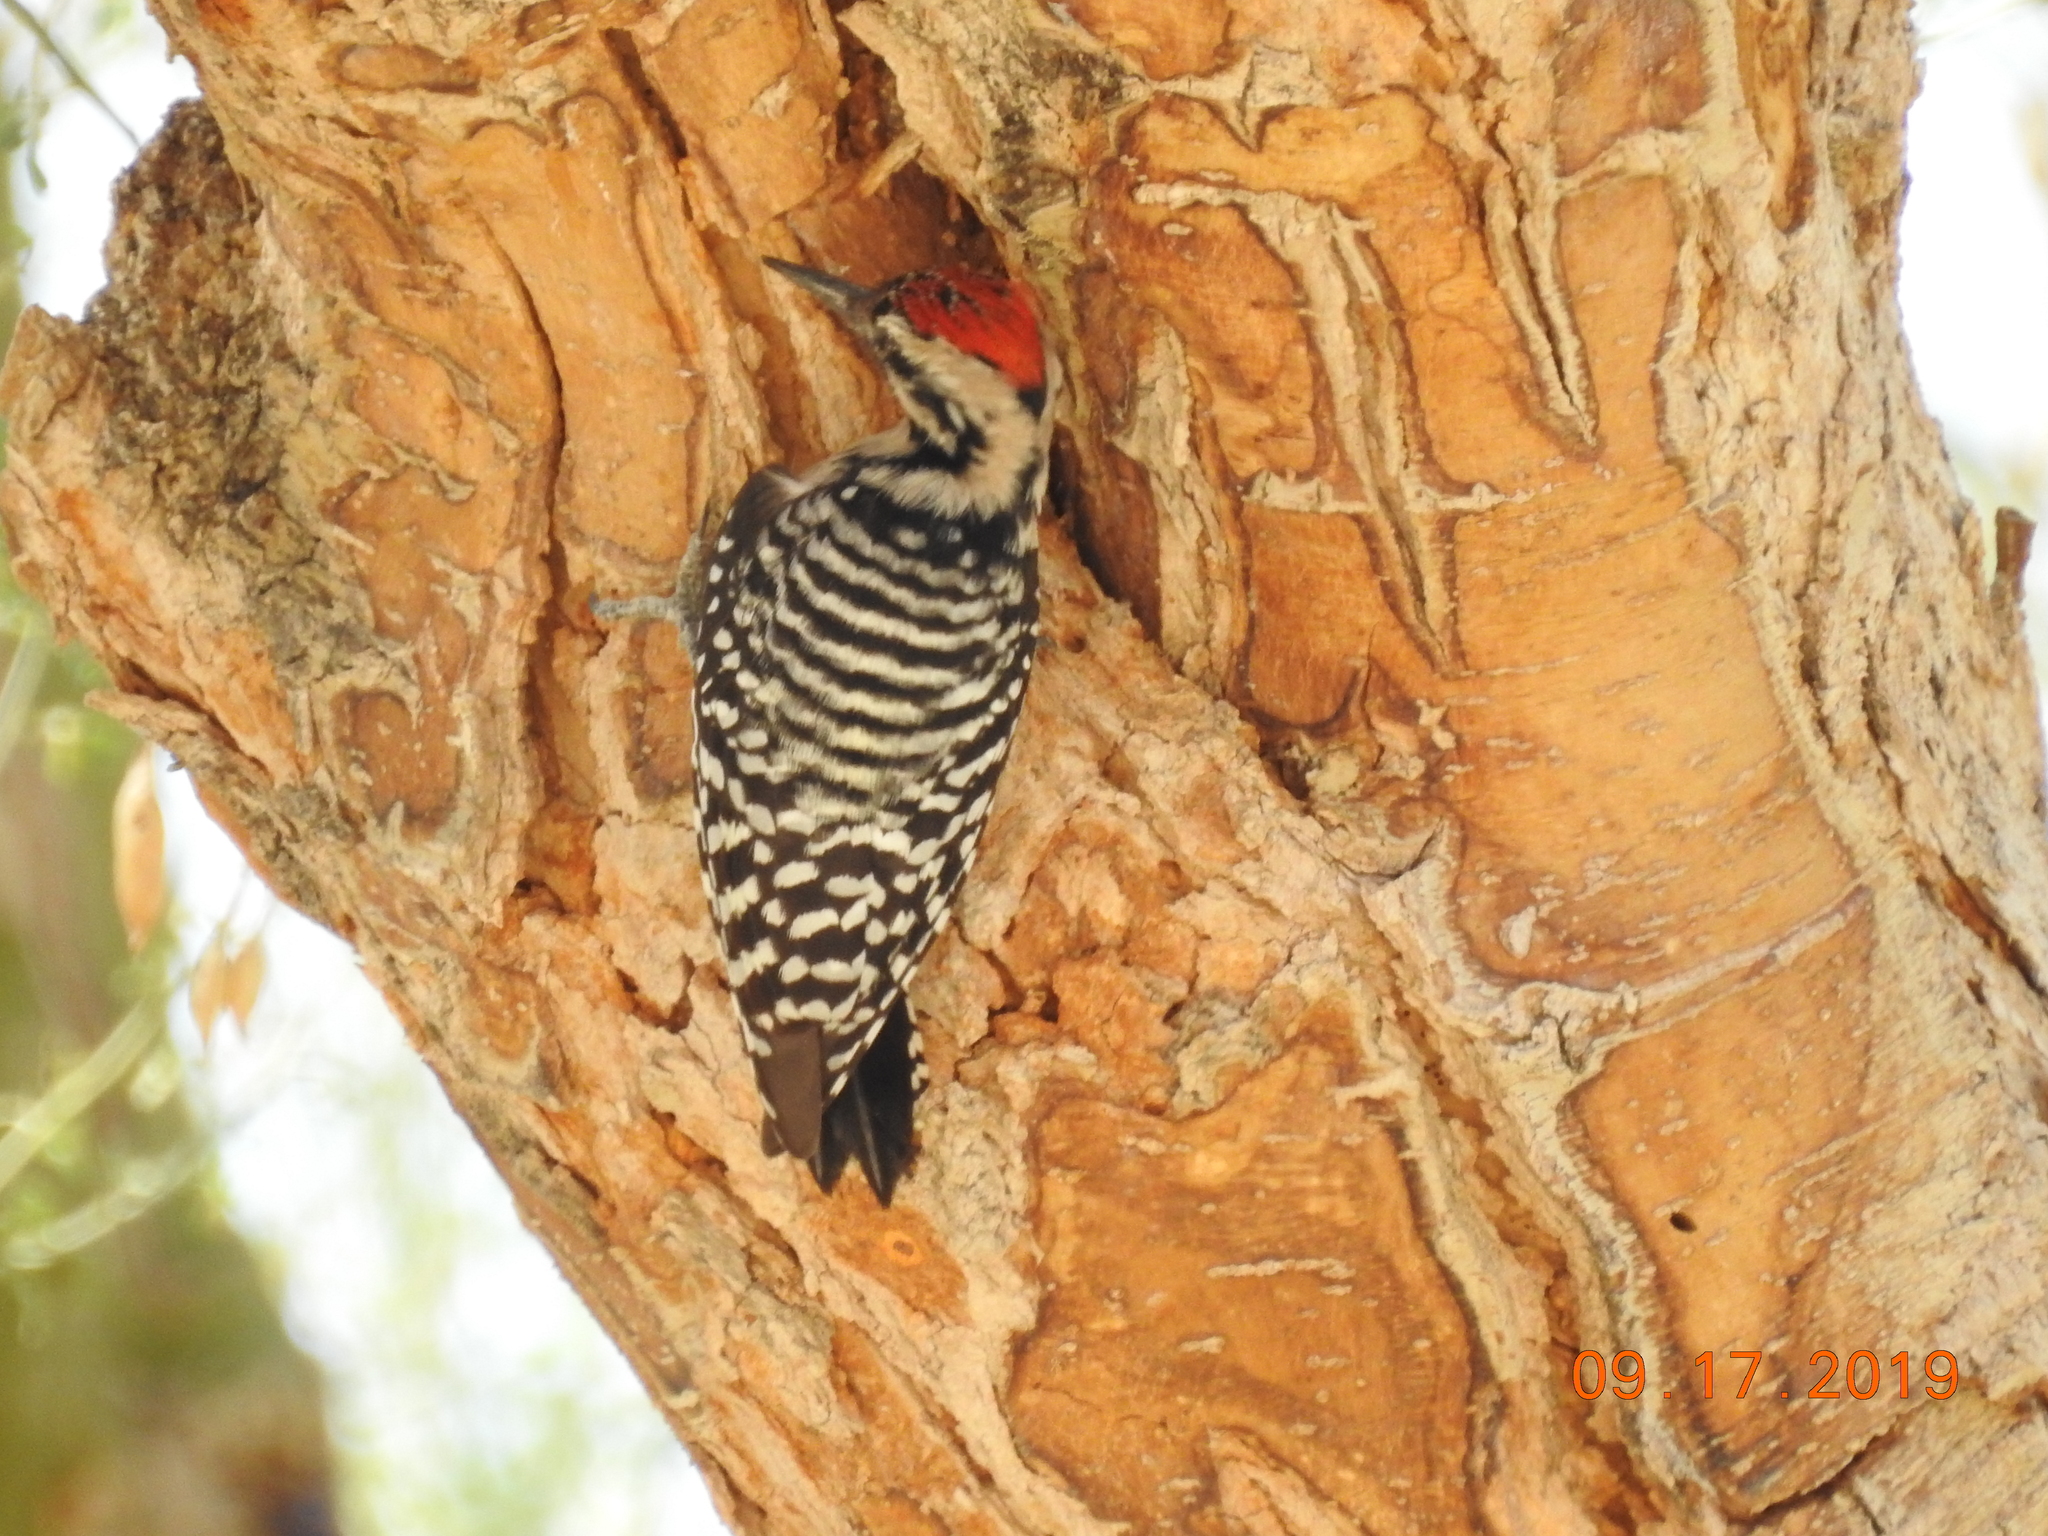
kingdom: Animalia
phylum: Chordata
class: Aves
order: Piciformes
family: Picidae
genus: Dryobates
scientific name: Dryobates scalaris
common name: Ladder-backed woodpecker
